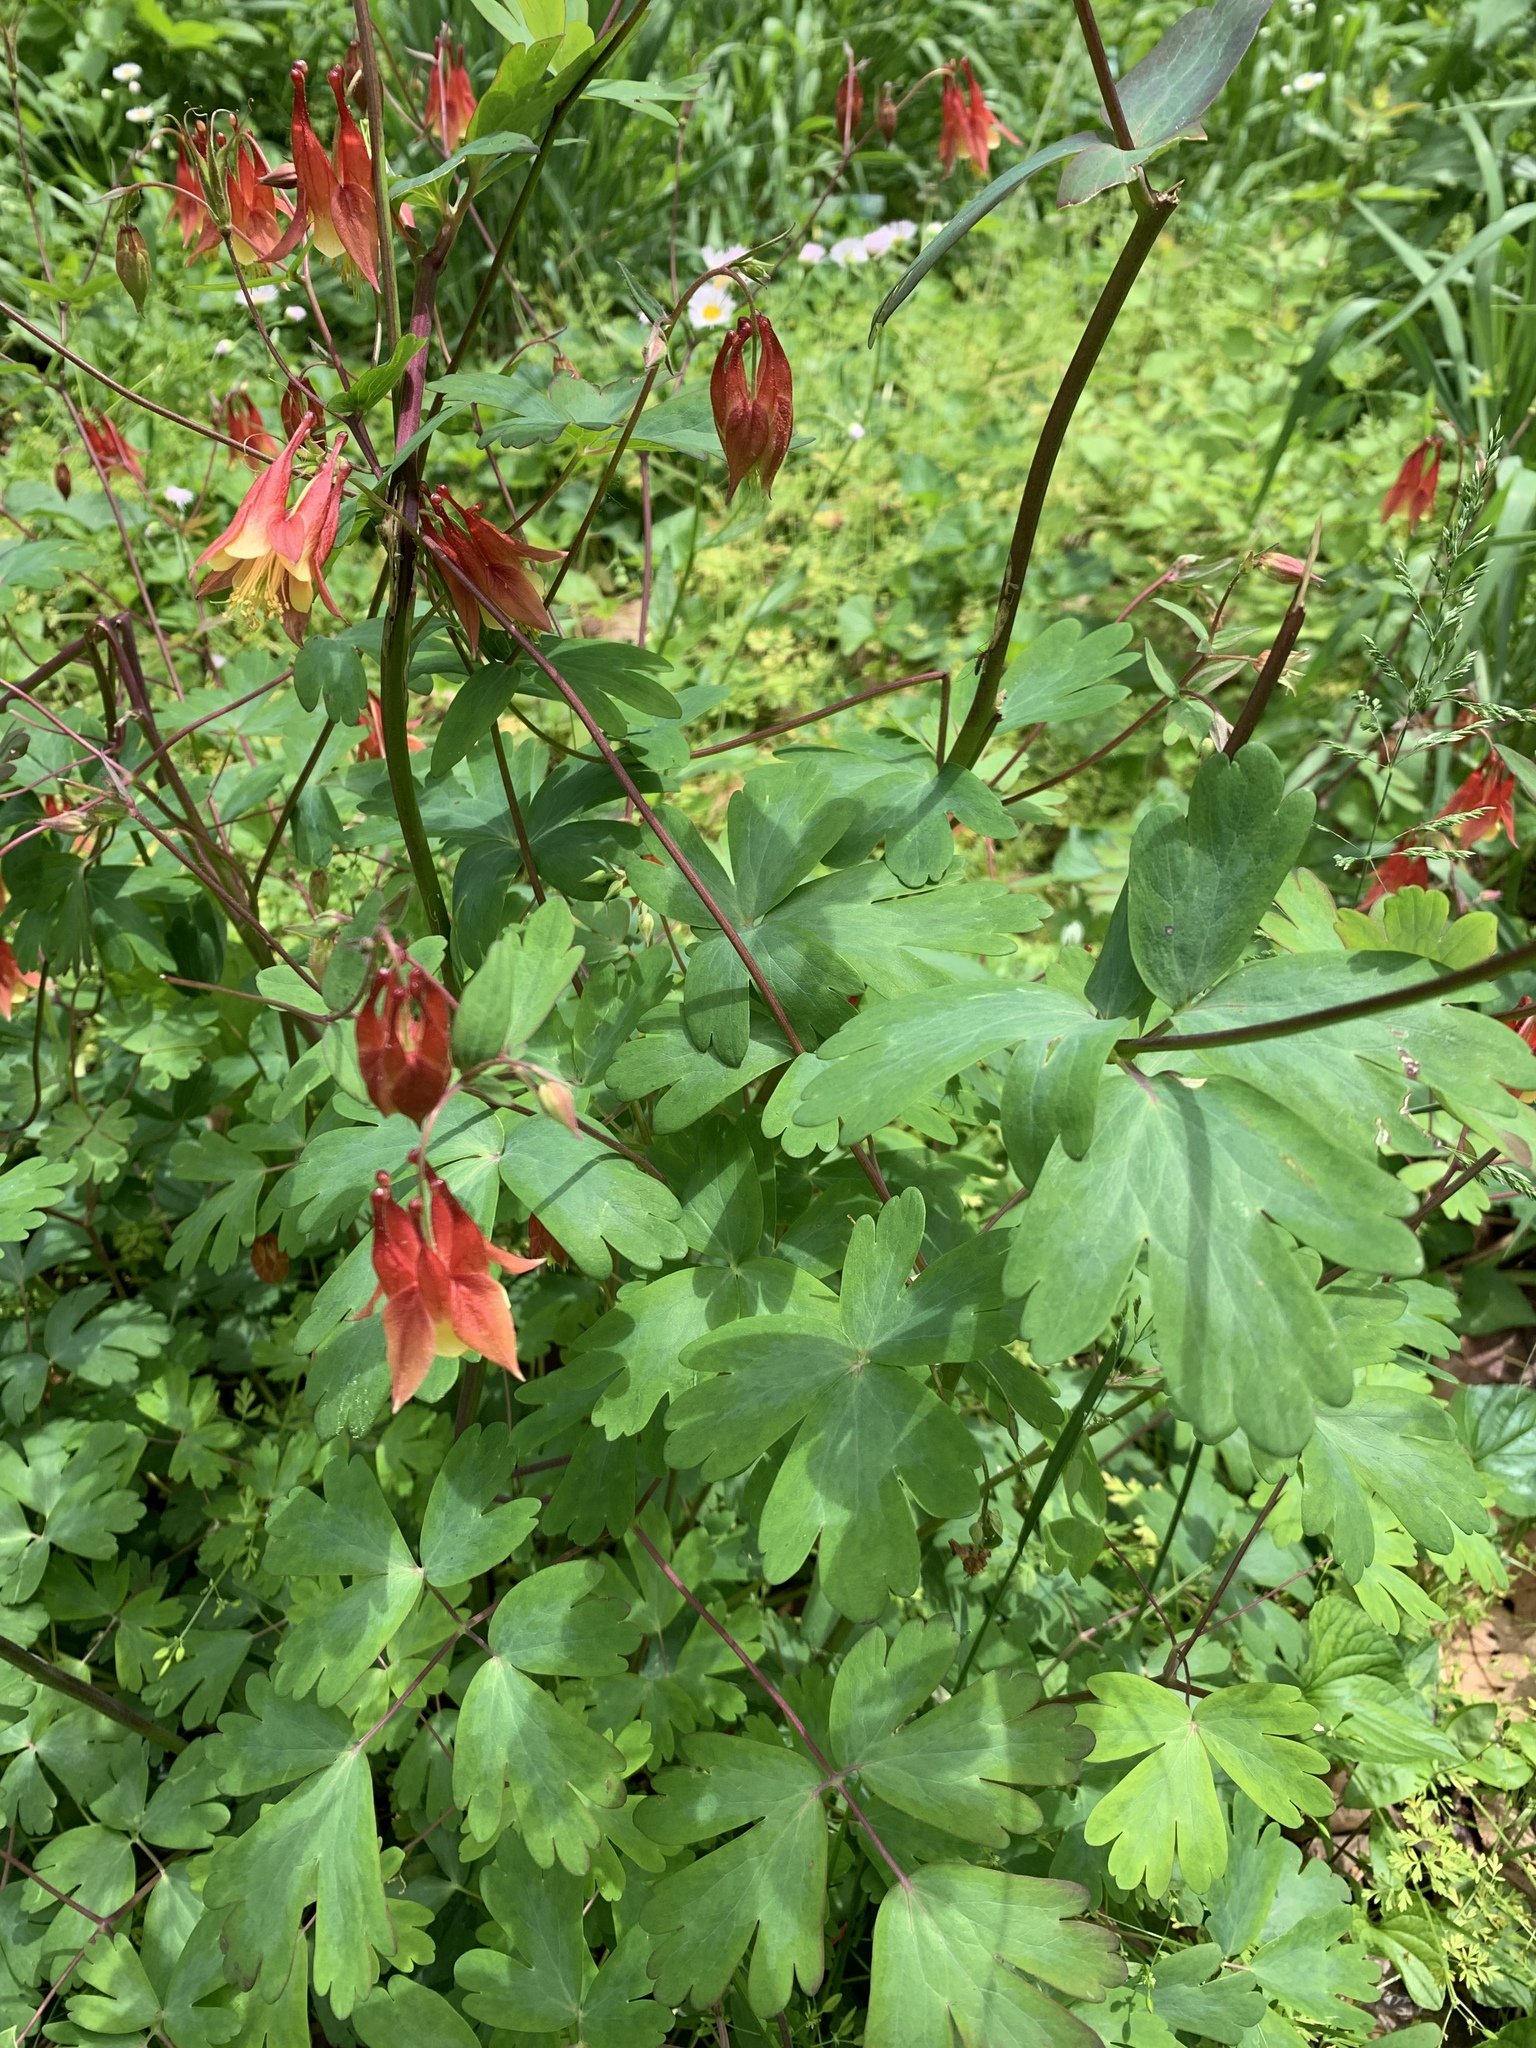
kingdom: Plantae
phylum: Tracheophyta
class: Magnoliopsida
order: Ranunculales
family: Ranunculaceae
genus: Aquilegia
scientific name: Aquilegia canadensis
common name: American columbine
